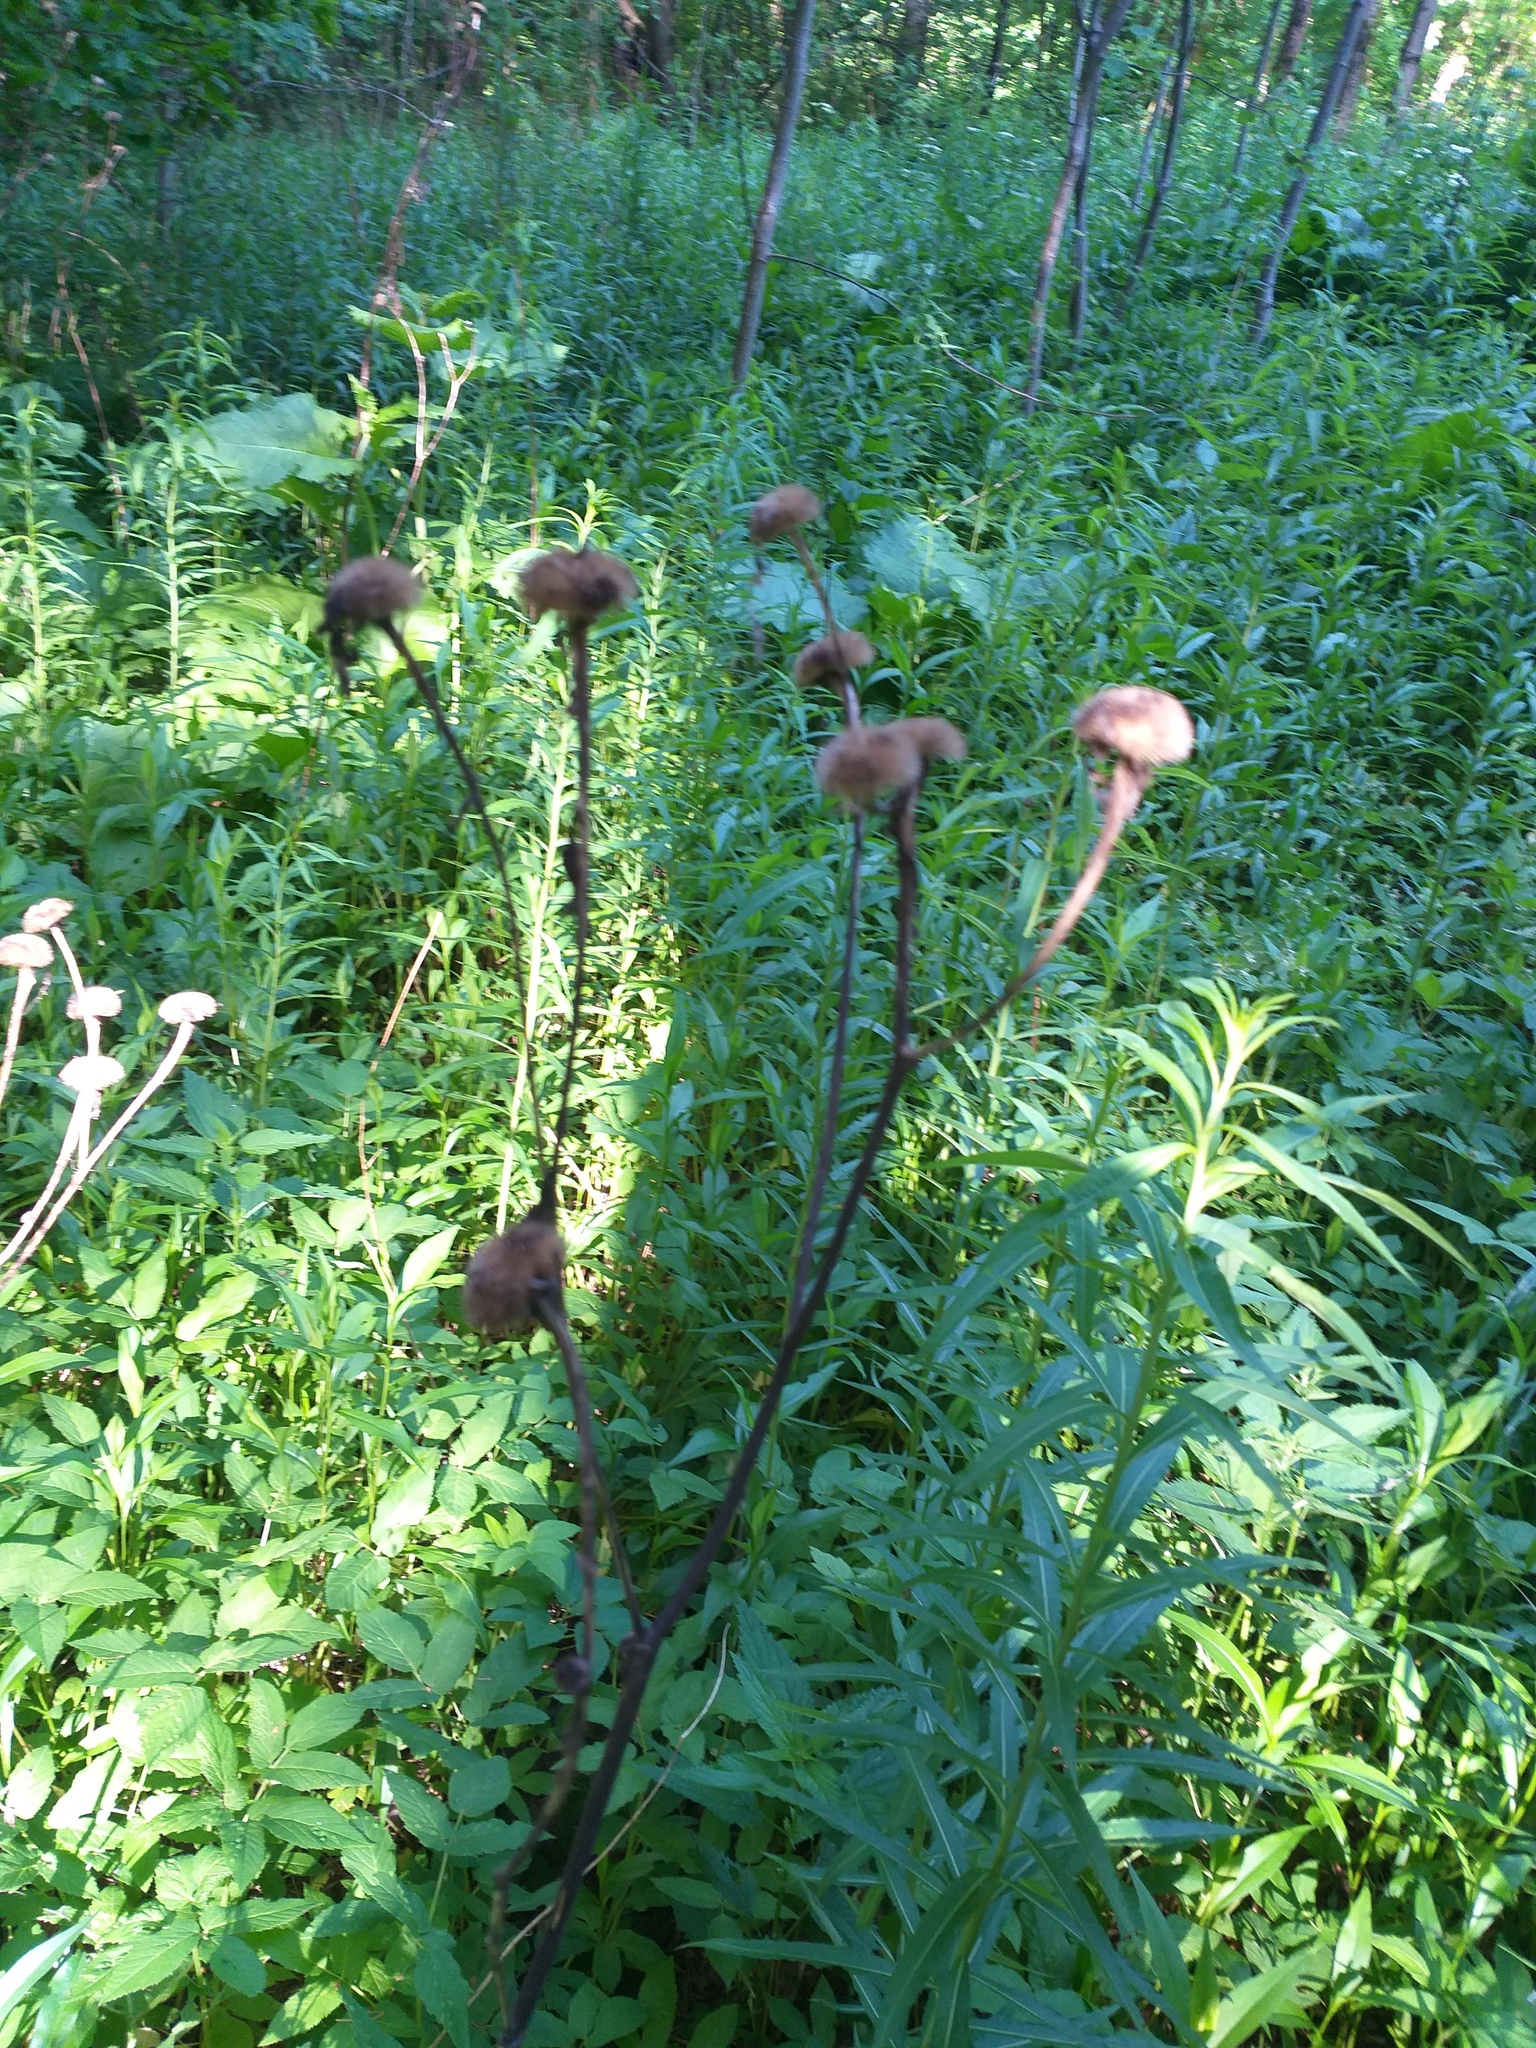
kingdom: Plantae
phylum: Tracheophyta
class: Magnoliopsida
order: Asterales
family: Asteraceae
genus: Telekia
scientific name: Telekia speciosa
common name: Yellow oxeye
